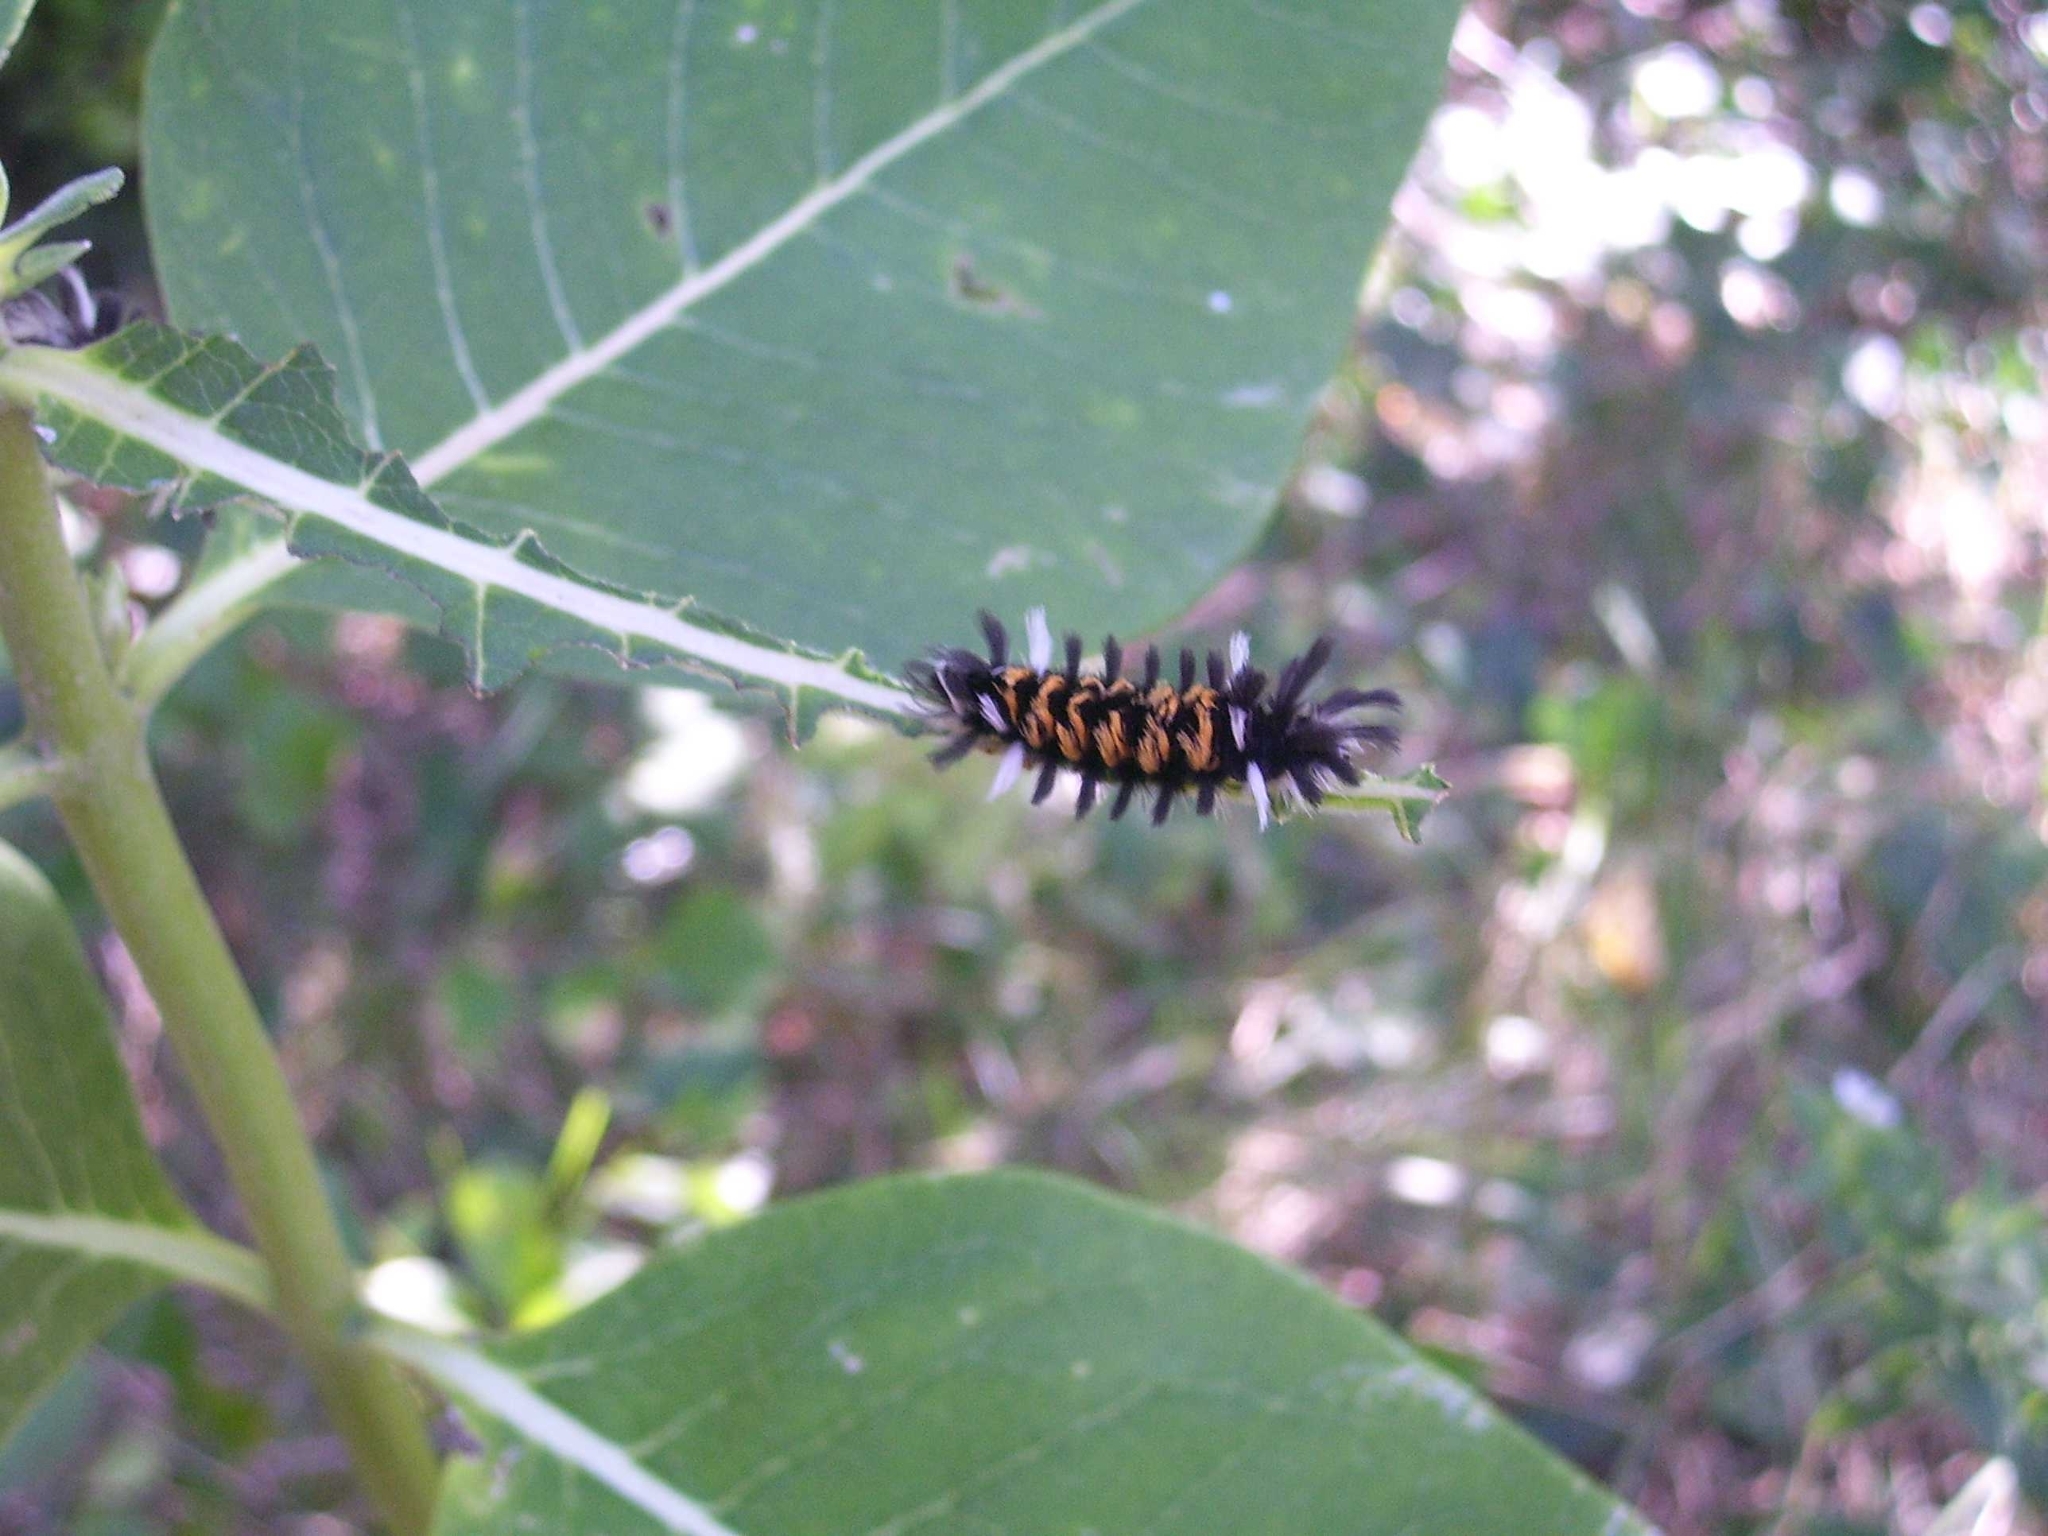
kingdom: Animalia
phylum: Arthropoda
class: Insecta
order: Lepidoptera
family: Erebidae
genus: Euchaetes
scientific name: Euchaetes egle
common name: Milkweed tussock moth
